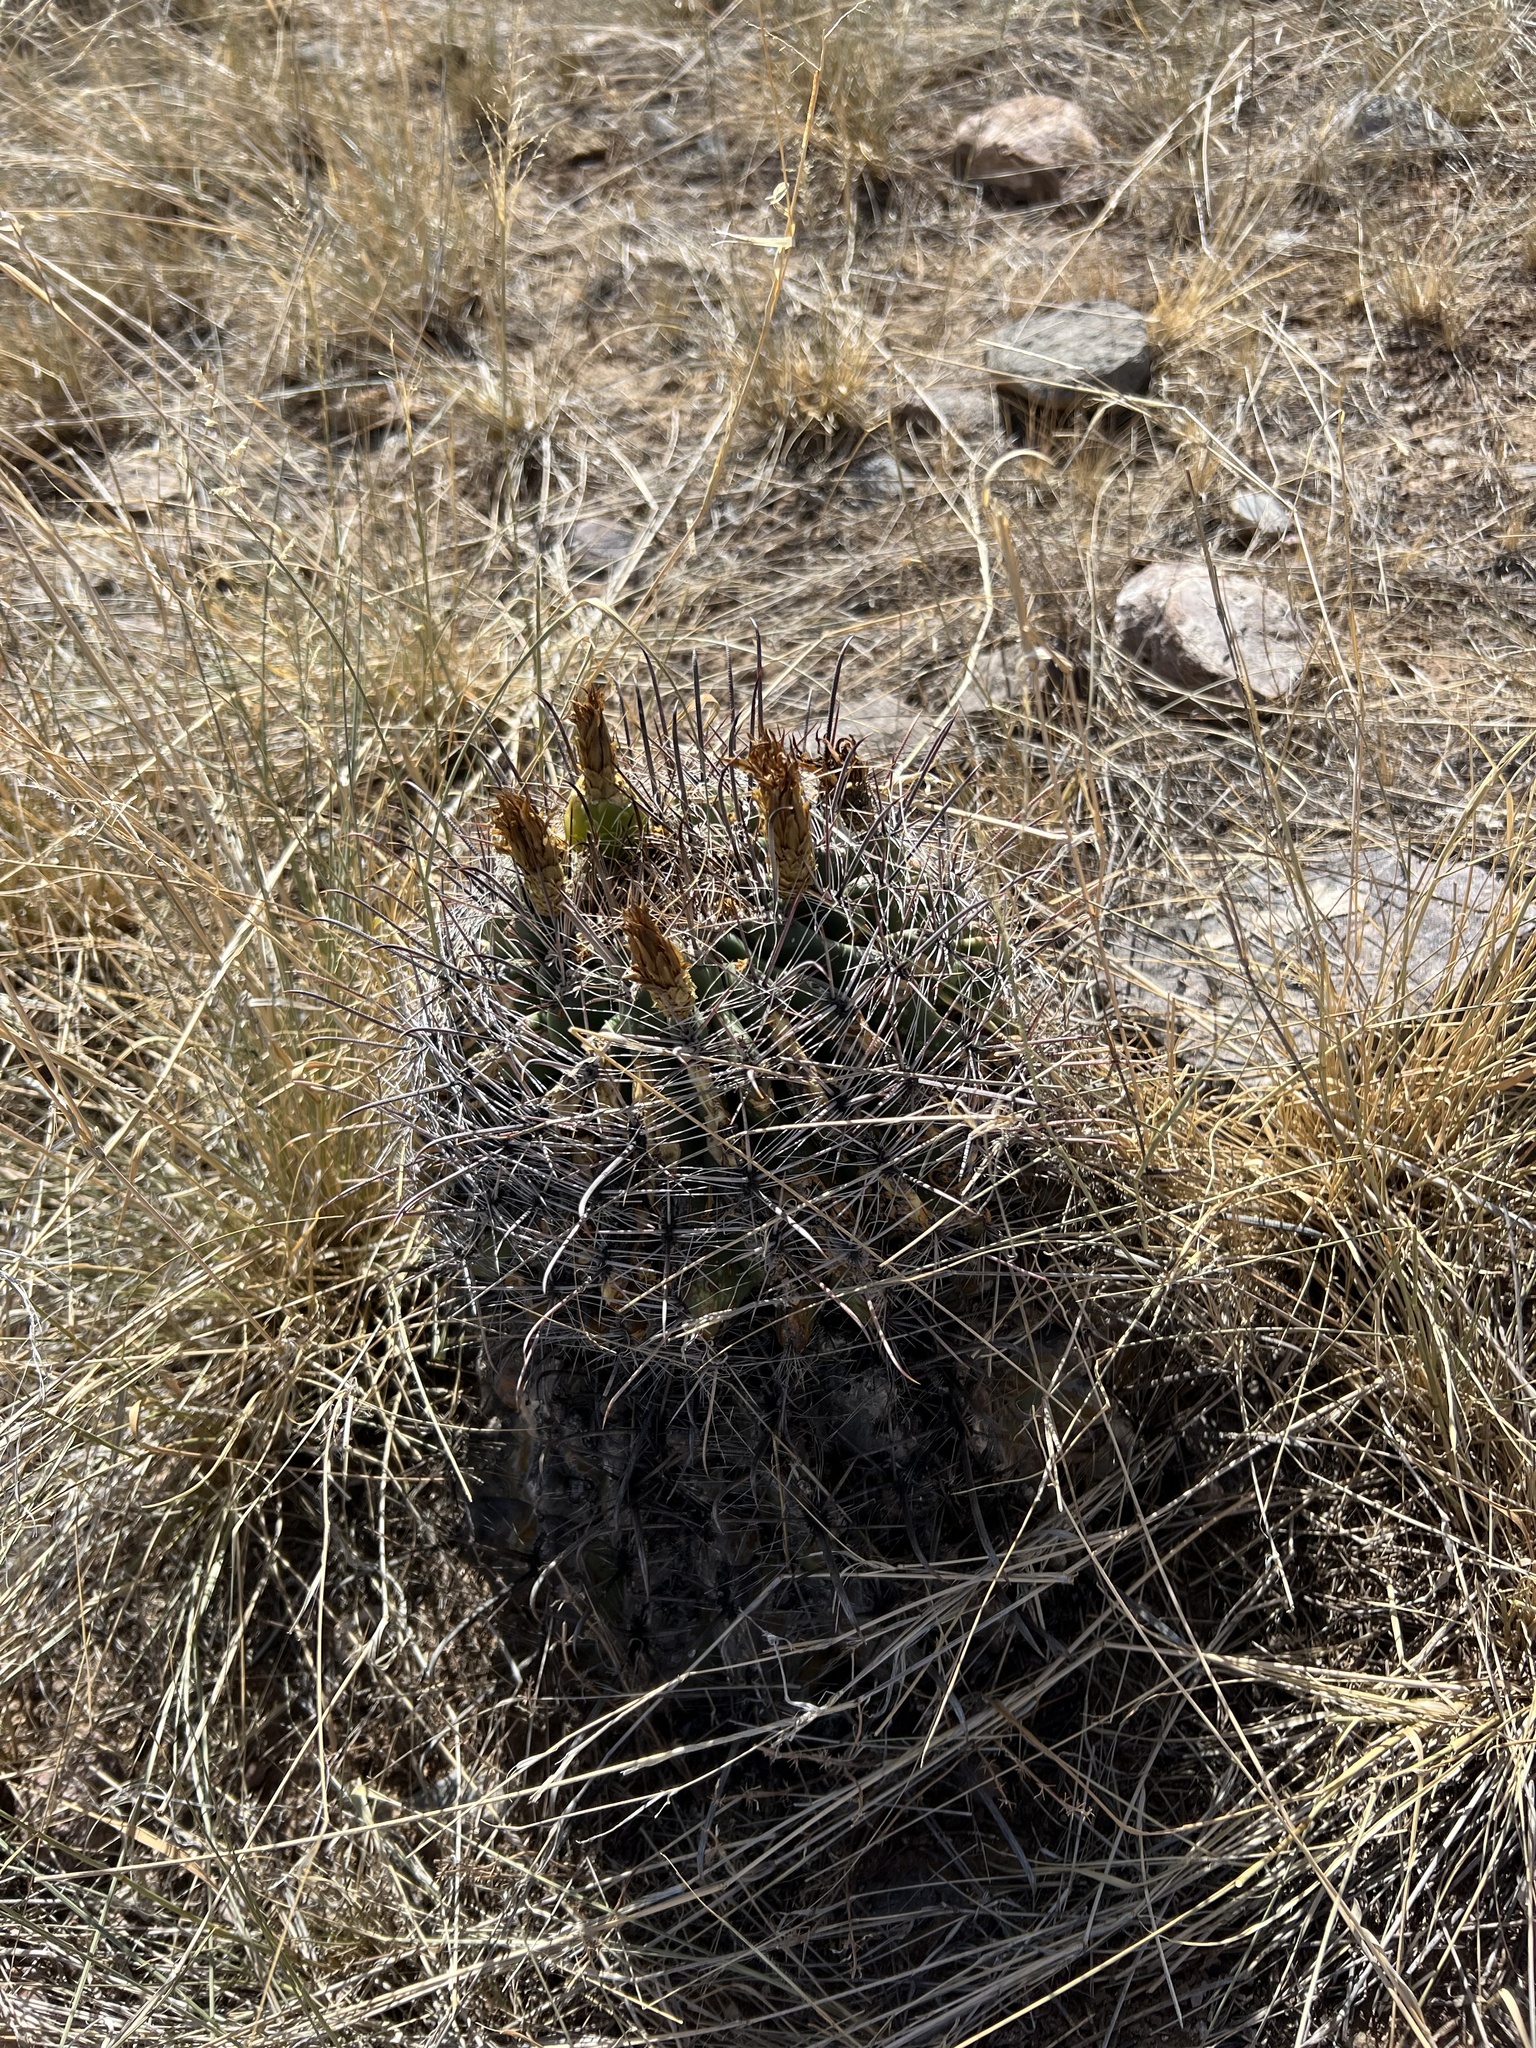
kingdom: Plantae
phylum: Tracheophyta
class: Magnoliopsida
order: Caryophyllales
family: Cactaceae
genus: Ferocactus
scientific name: Ferocactus wislizeni
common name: Candy barrel cactus
